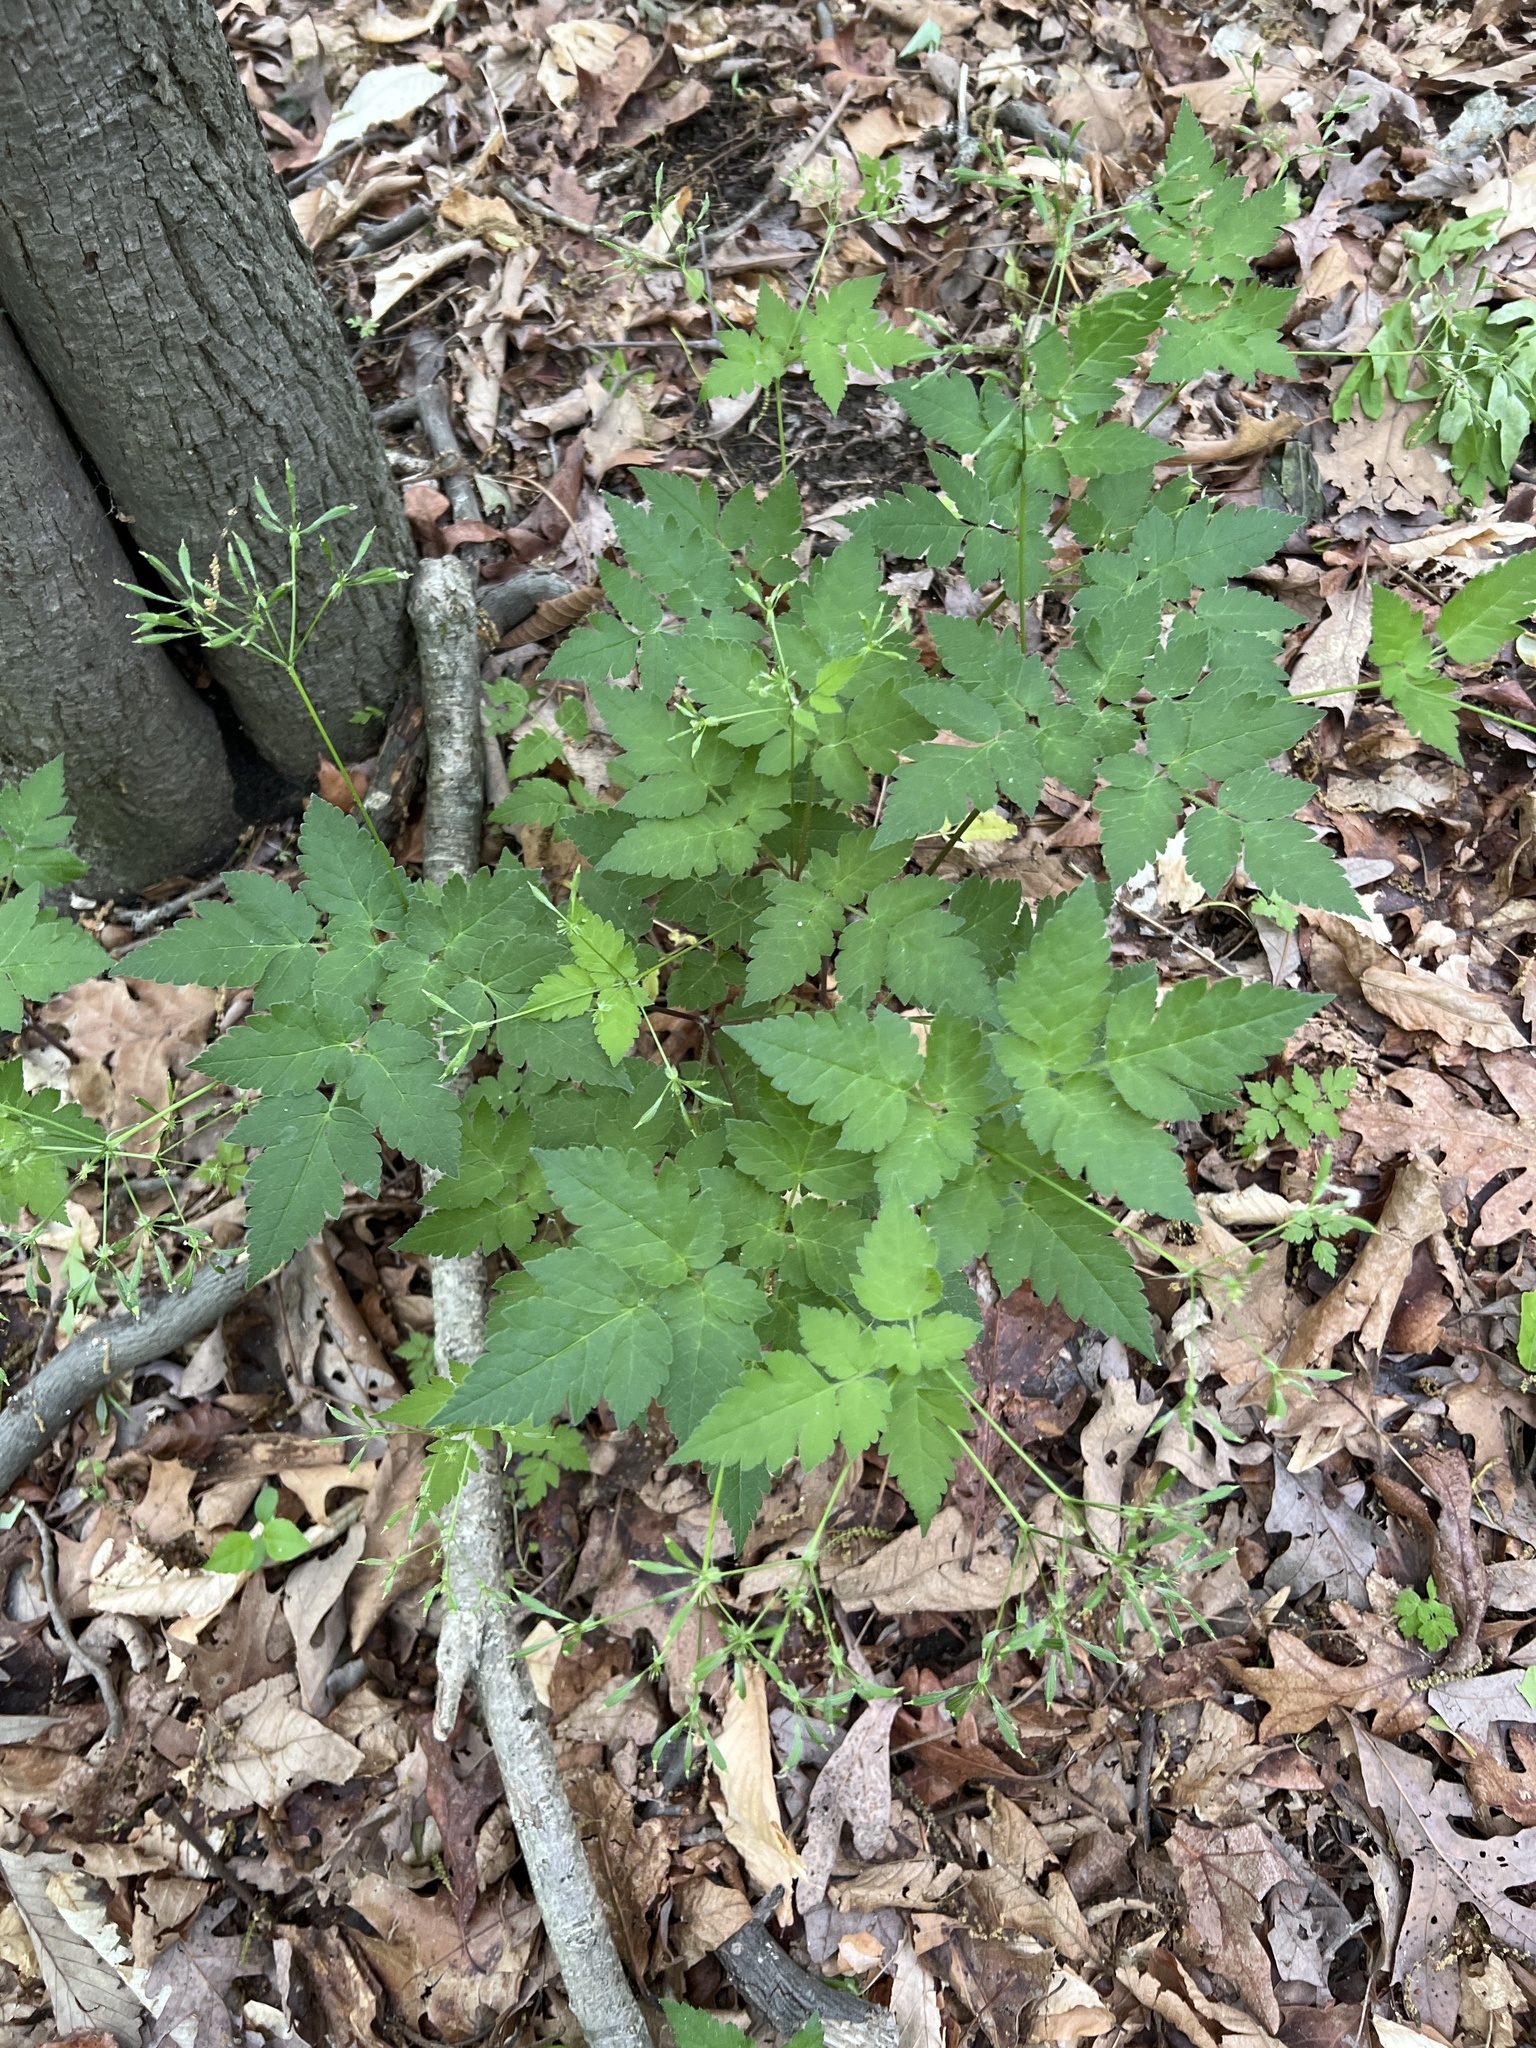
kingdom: Plantae
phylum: Tracheophyta
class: Magnoliopsida
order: Apiales
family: Apiaceae
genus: Osmorhiza
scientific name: Osmorhiza longistylis
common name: Smooth sweet cicely
